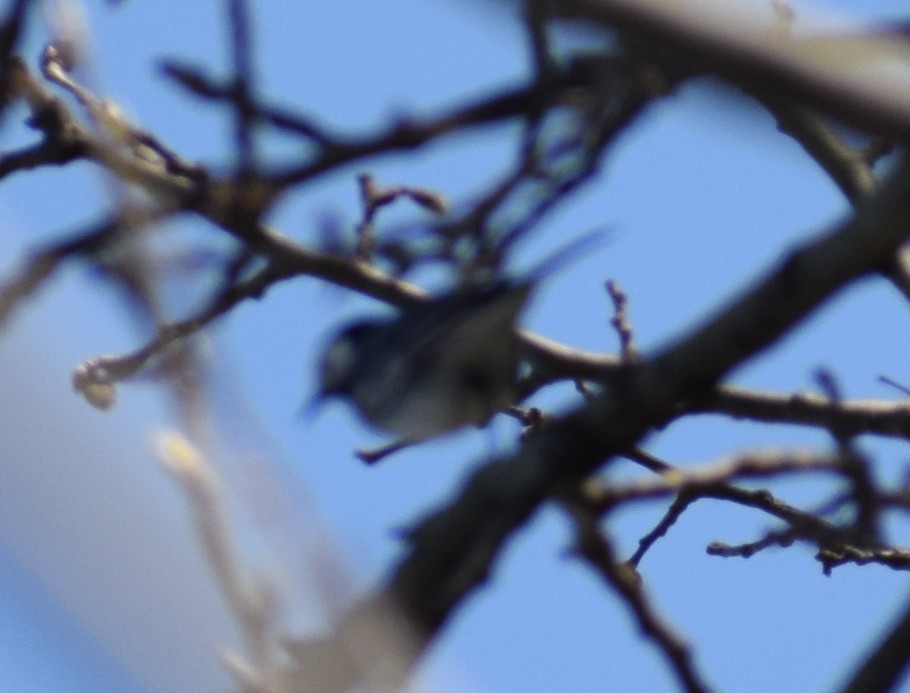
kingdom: Animalia
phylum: Chordata
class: Aves
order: Passeriformes
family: Motacillidae
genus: Motacilla
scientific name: Motacilla alba
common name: White wagtail
